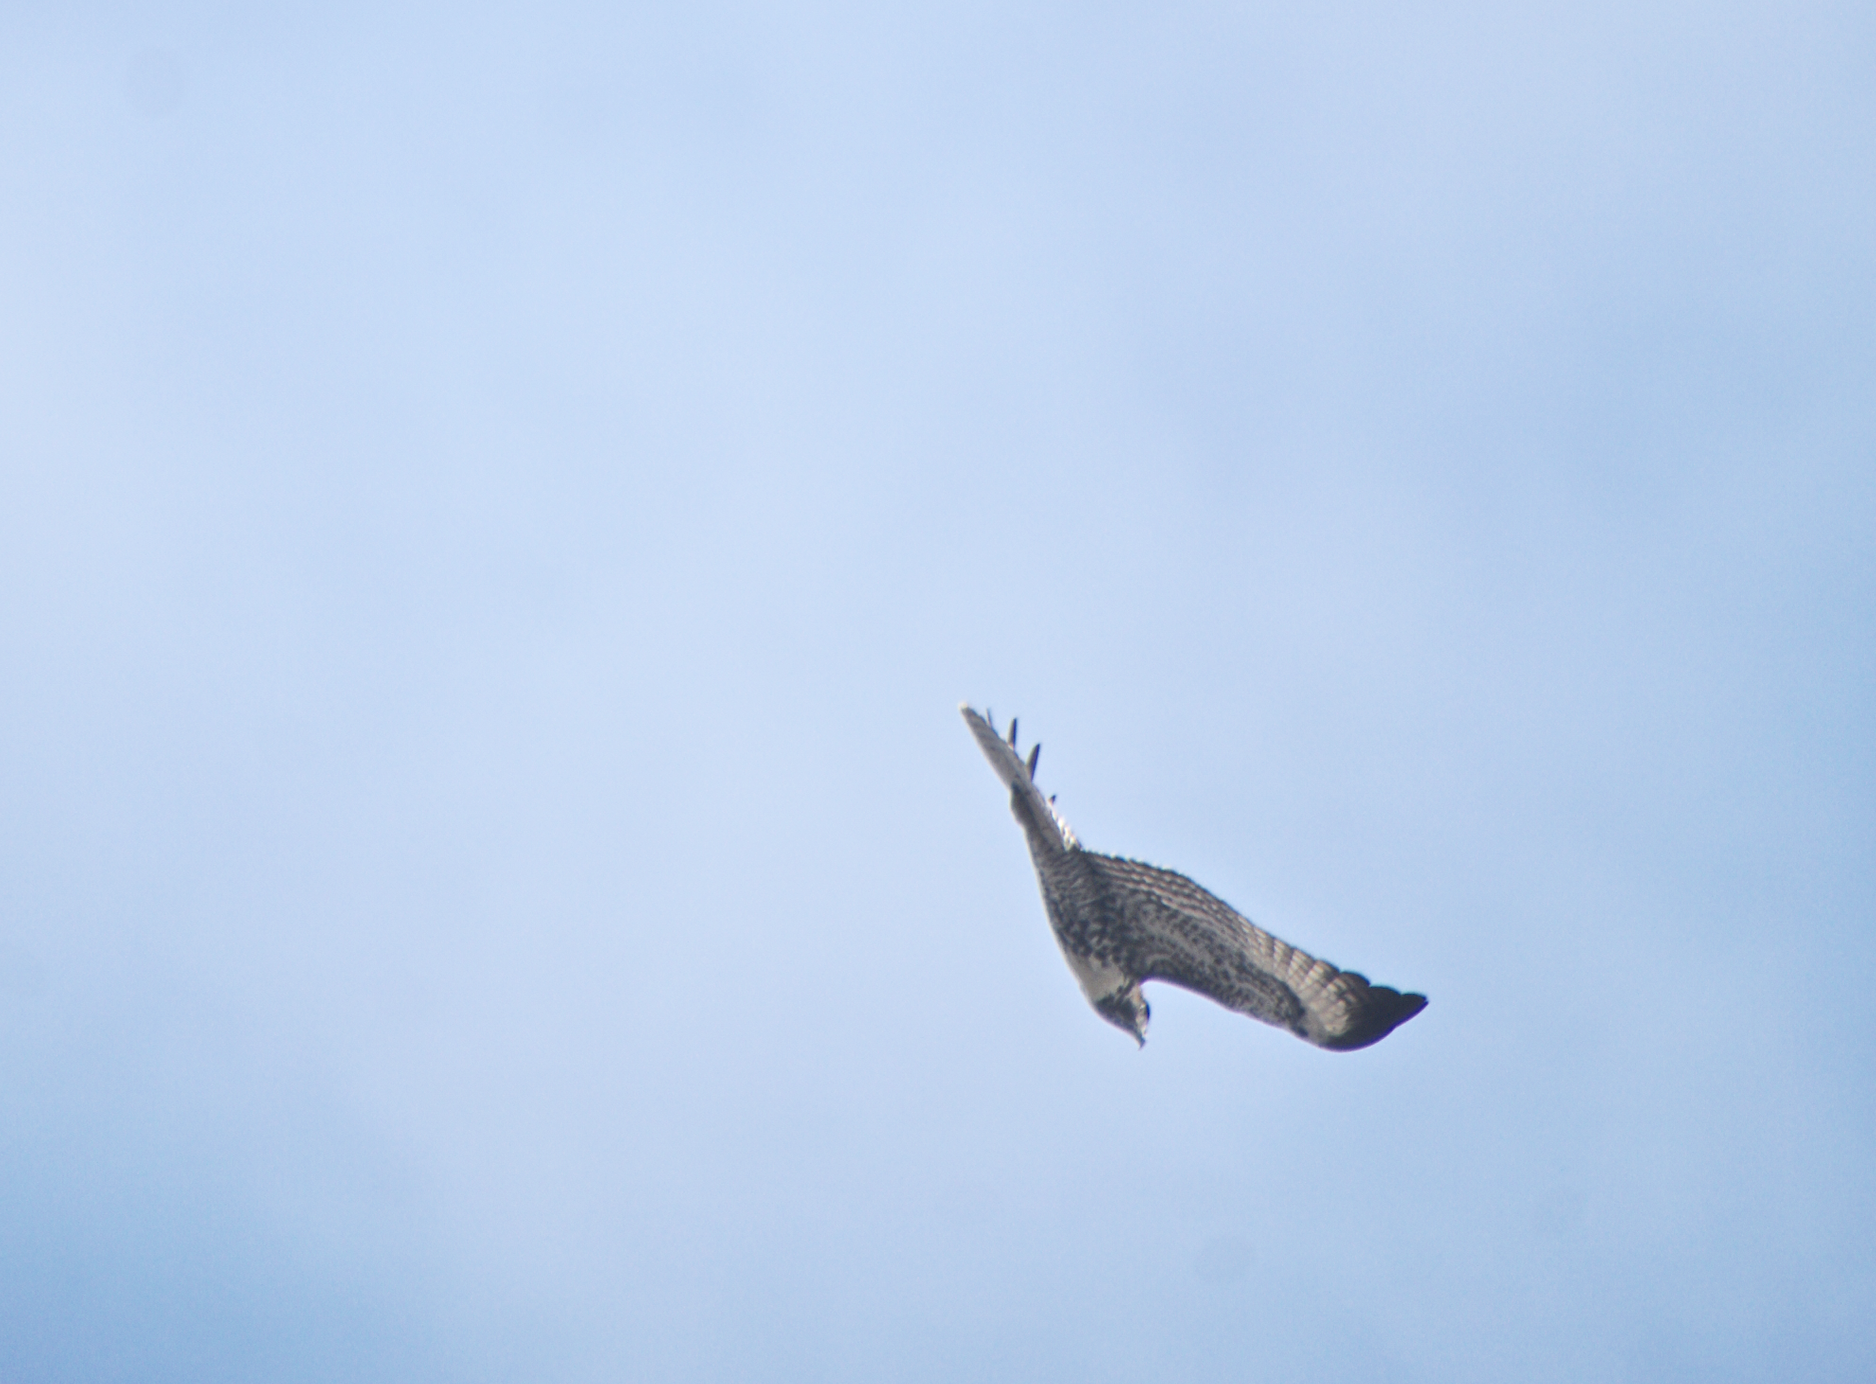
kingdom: Animalia
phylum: Chordata
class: Aves
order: Accipitriformes
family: Accipitridae
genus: Buteo
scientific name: Buteo jamaicensis
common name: Red-tailed hawk
